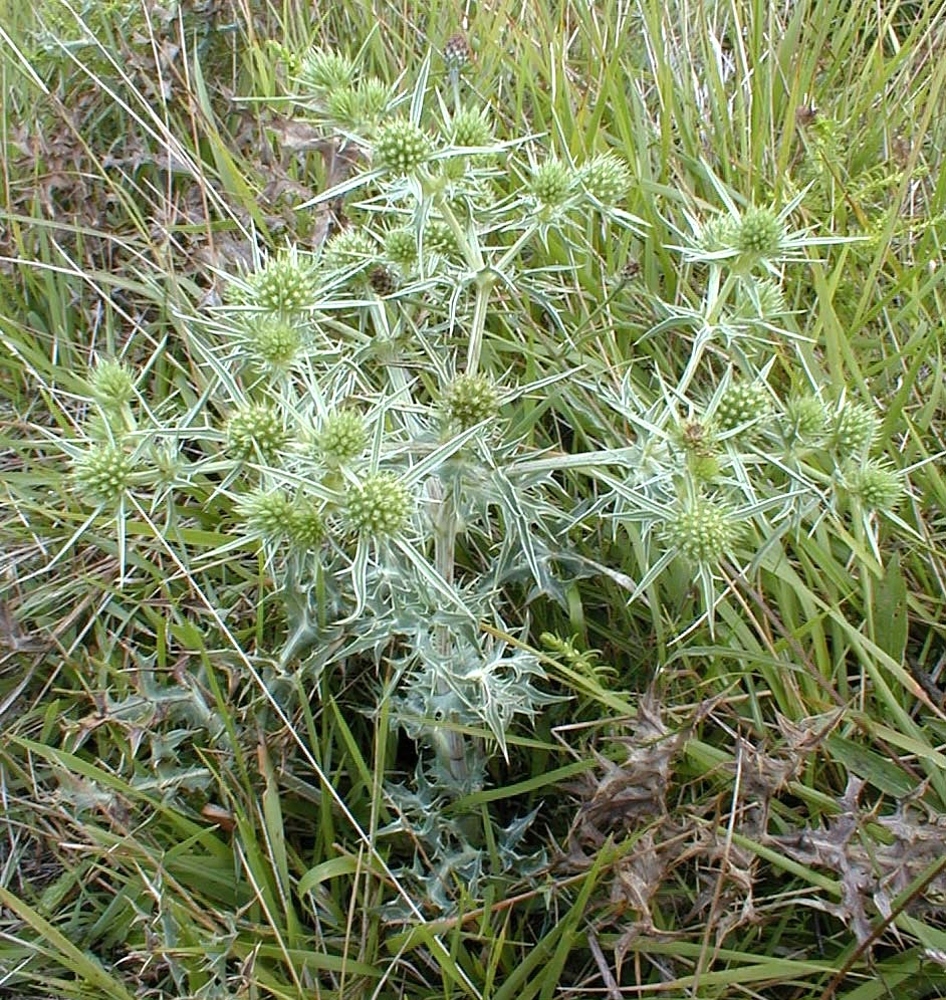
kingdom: Plantae
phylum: Tracheophyta
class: Magnoliopsida
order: Apiales
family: Apiaceae
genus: Eryngium
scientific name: Eryngium campestre
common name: Field eryngo
